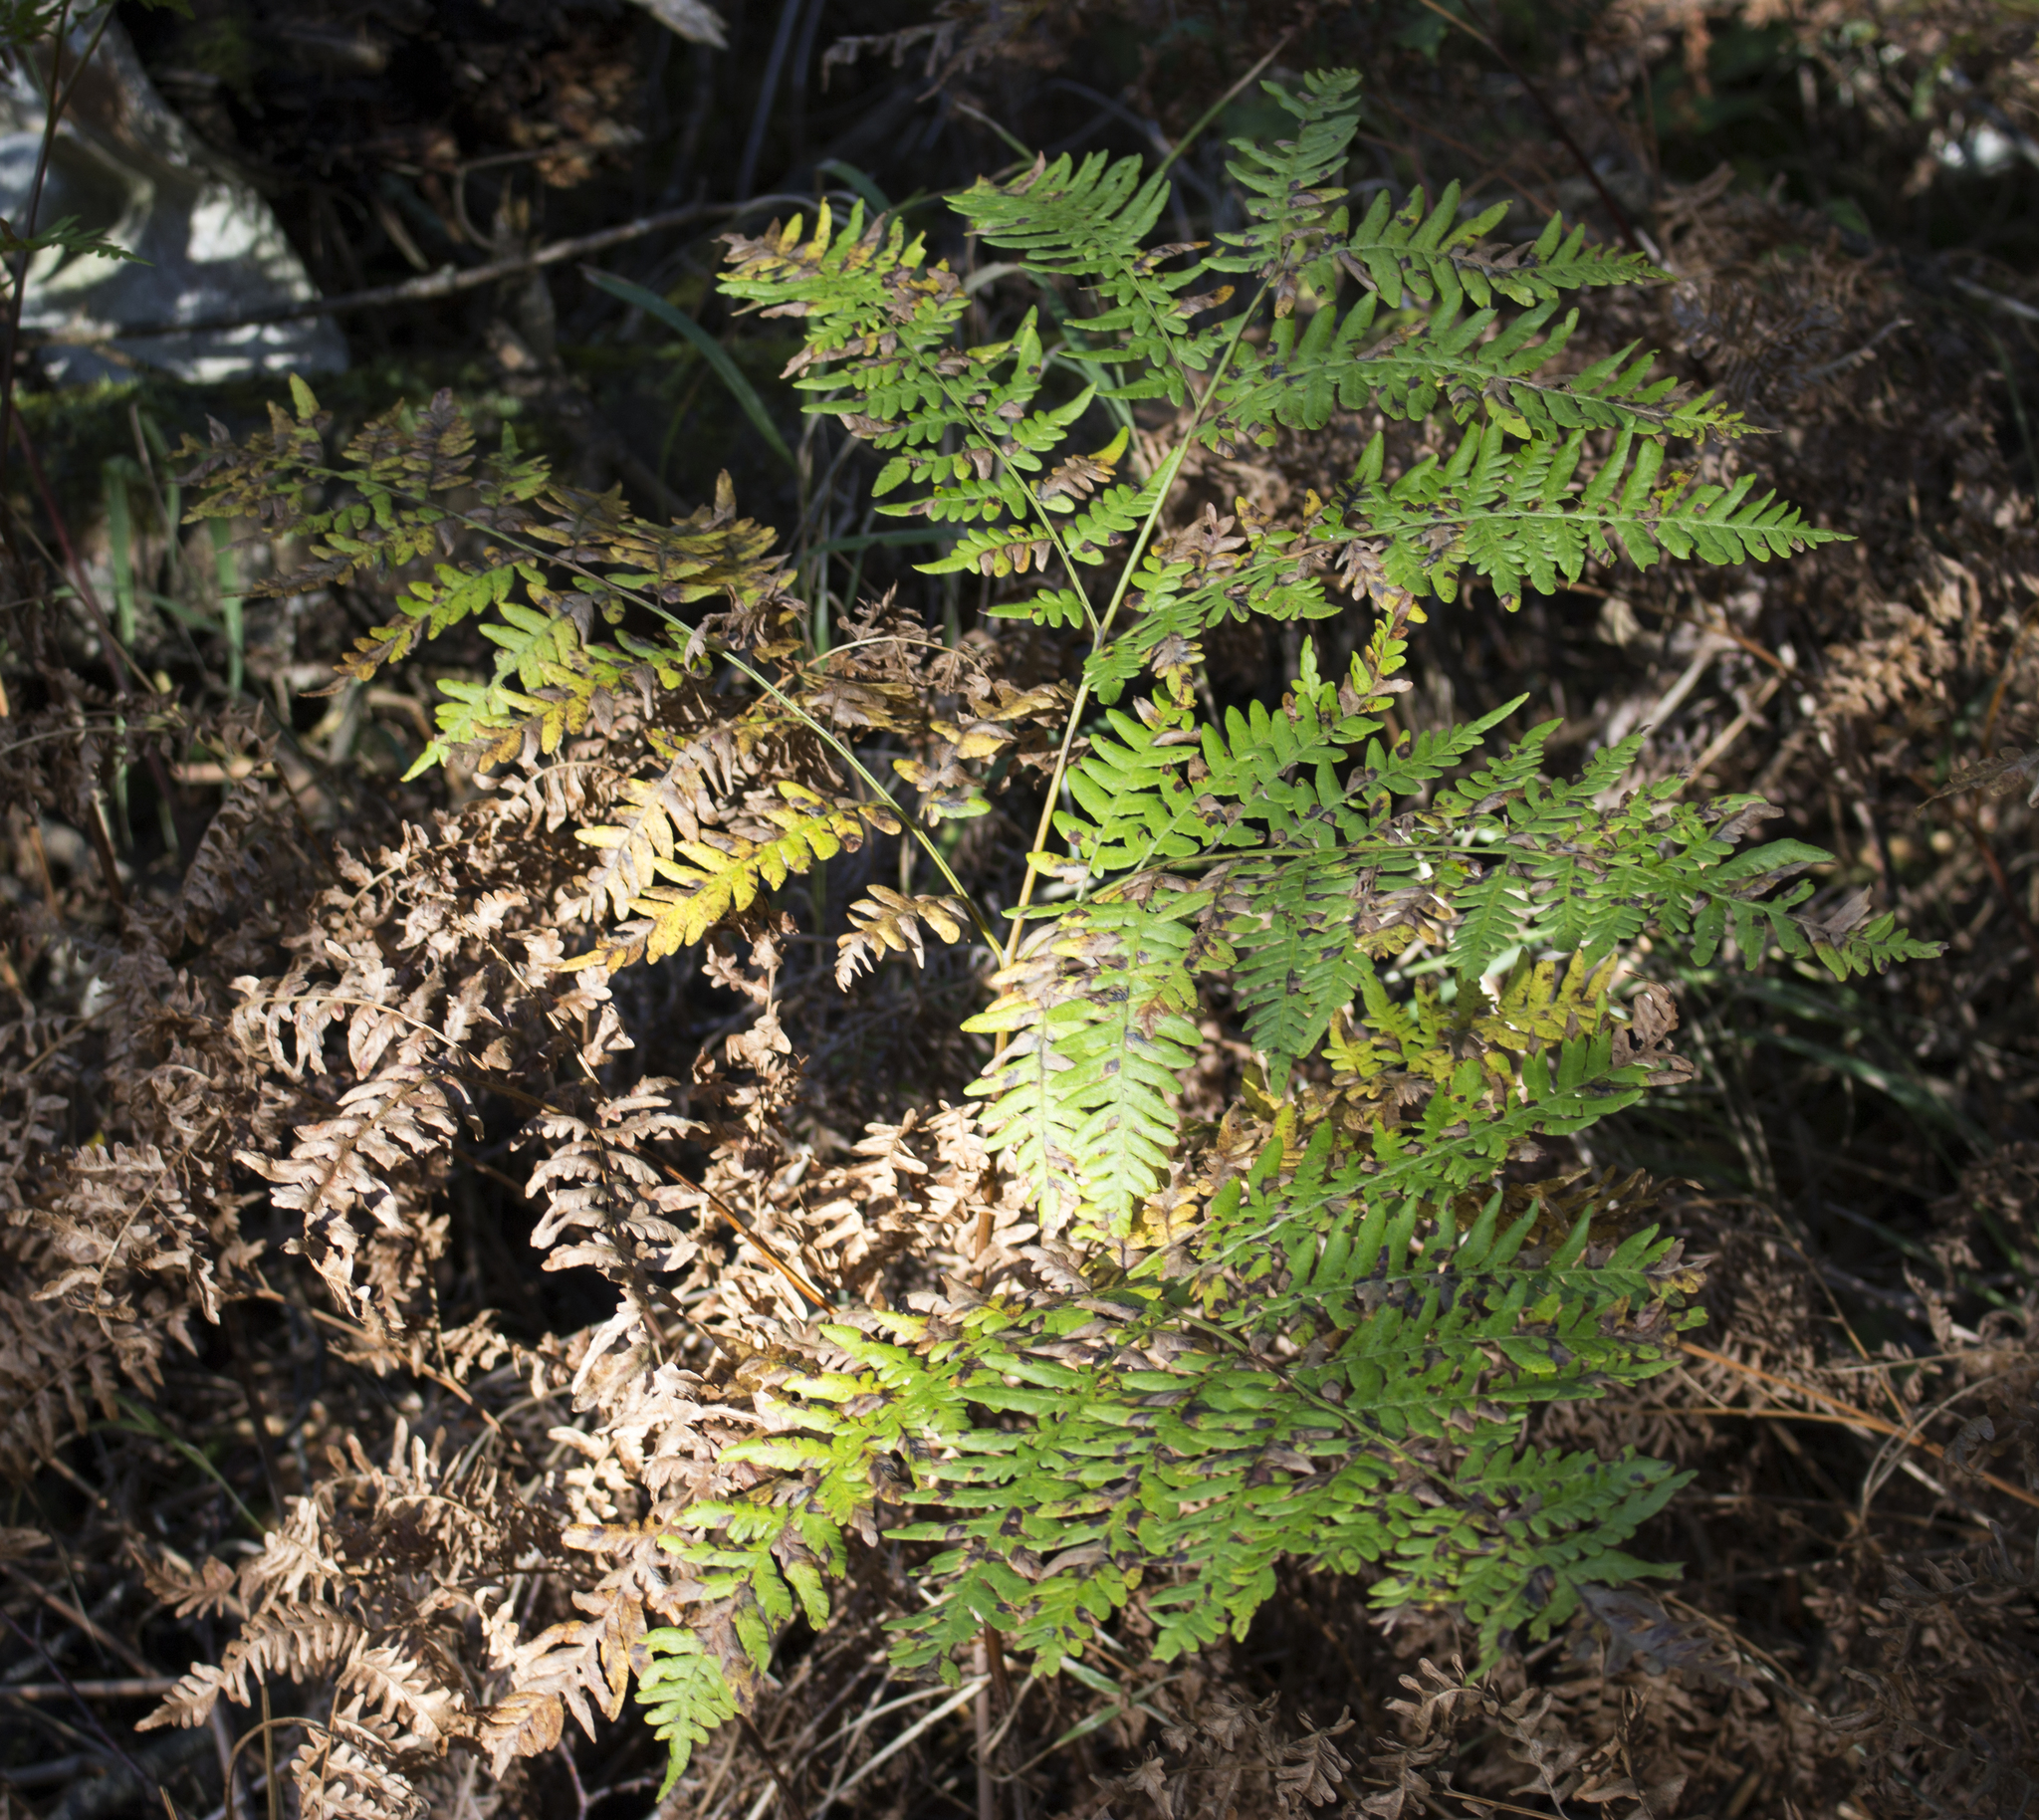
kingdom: Plantae
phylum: Tracheophyta
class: Polypodiopsida
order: Polypodiales
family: Dennstaedtiaceae
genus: Pteridium
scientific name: Pteridium aquilinum
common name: Bracken
